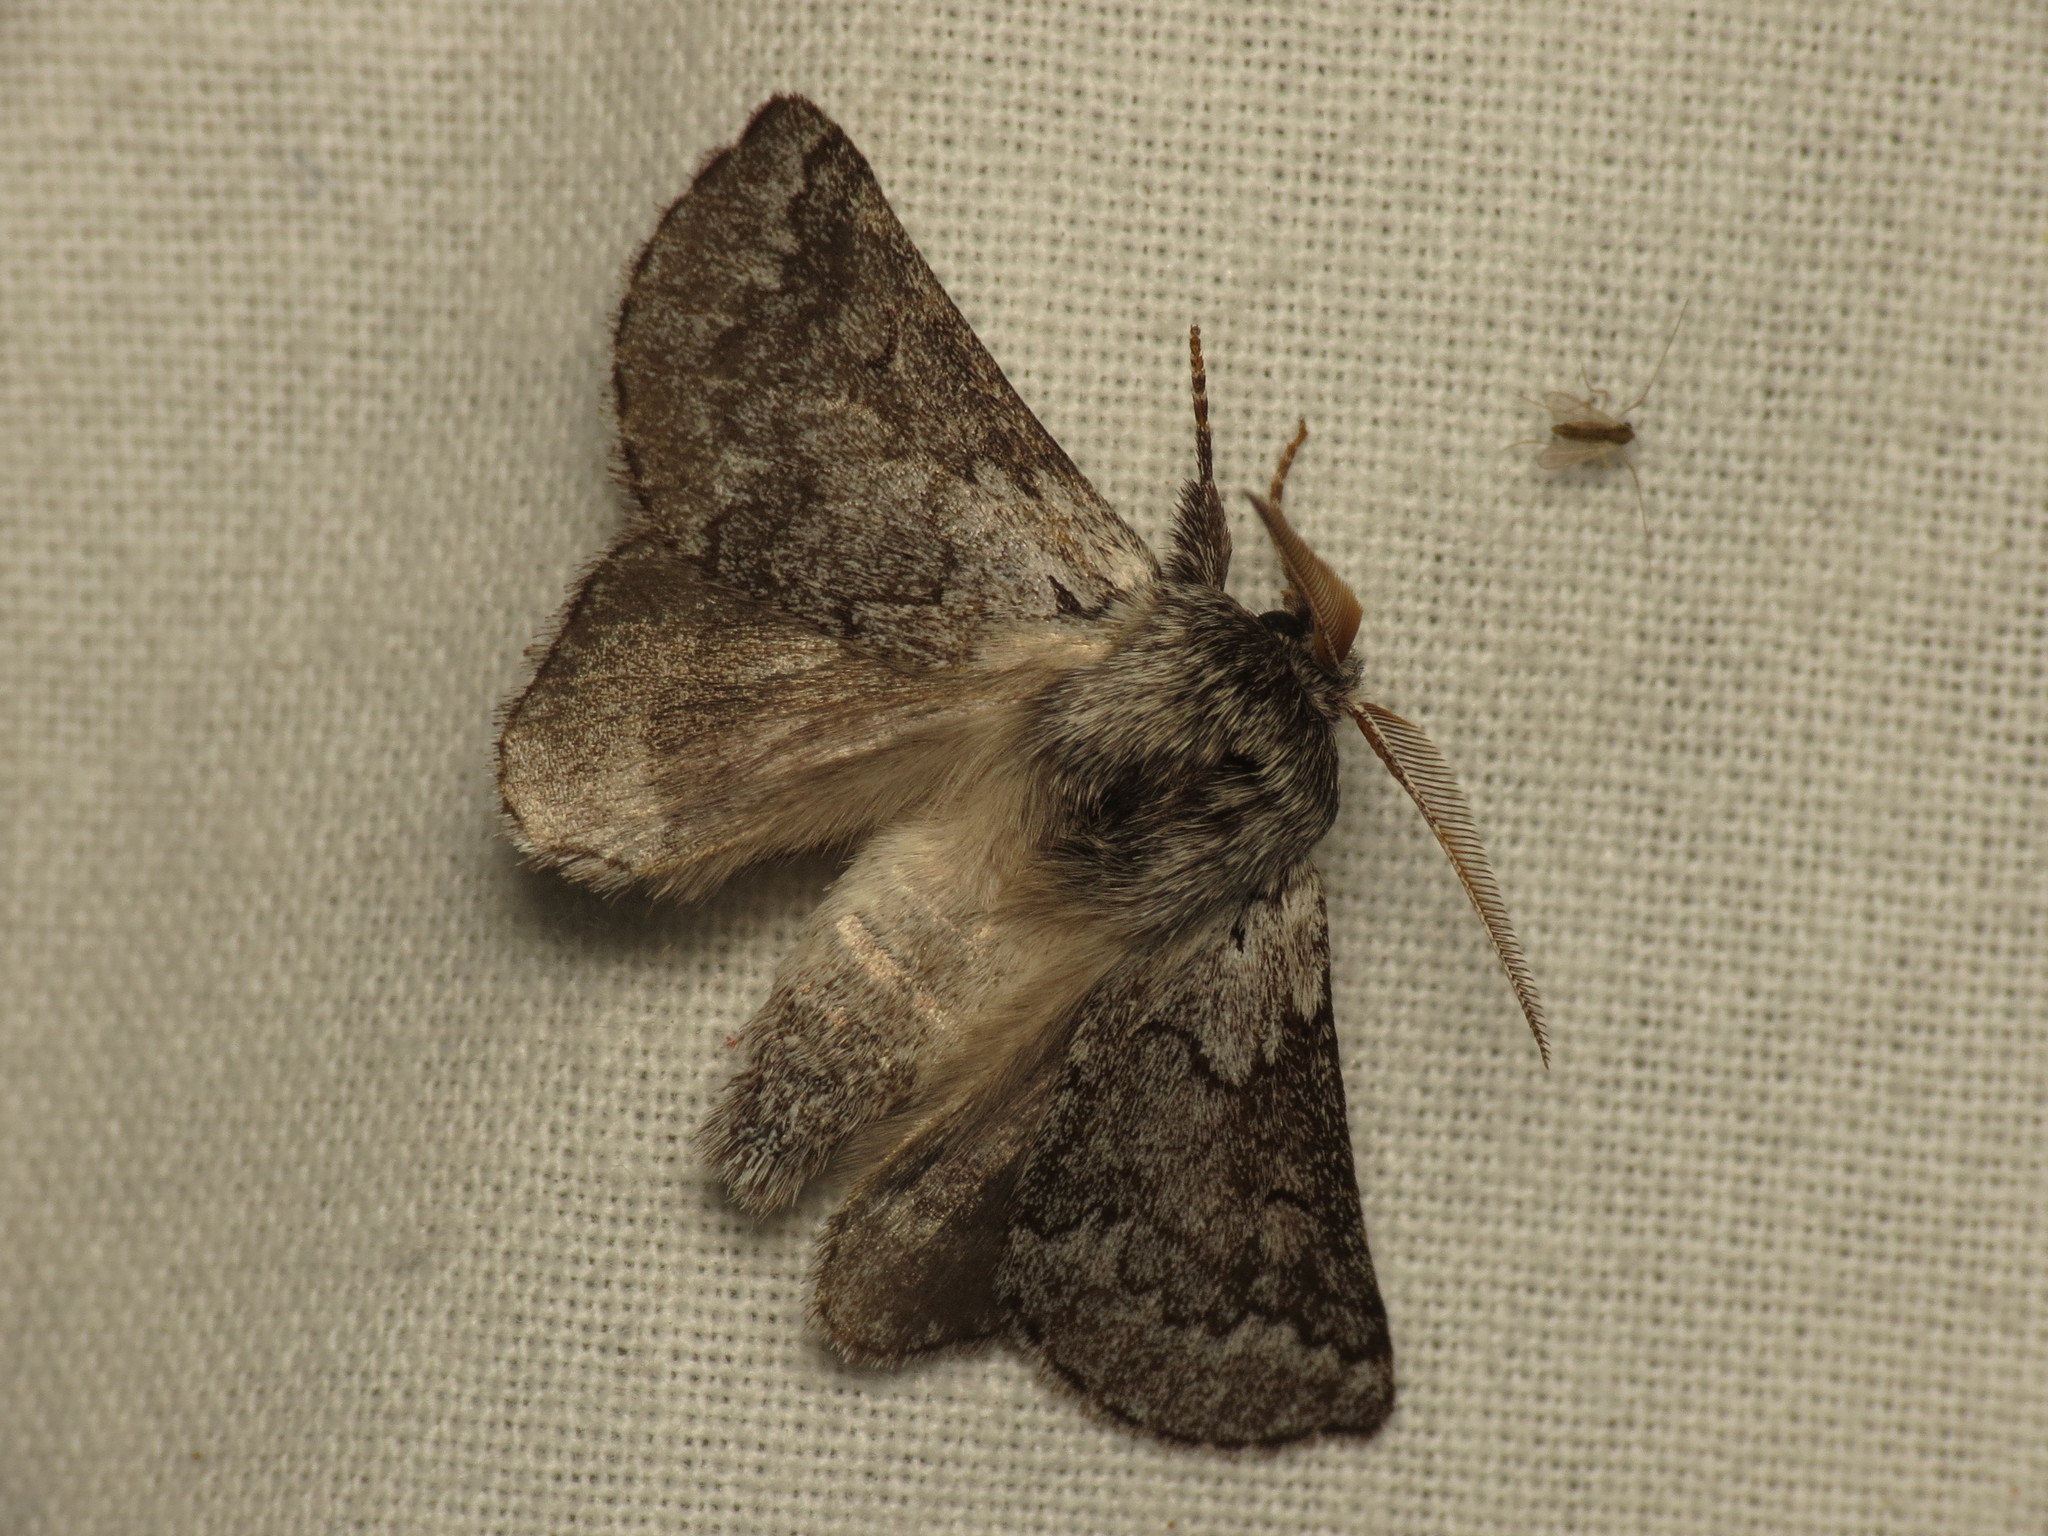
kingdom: Animalia
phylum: Arthropoda
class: Insecta
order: Lepidoptera
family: Anthelidae
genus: Munychryia
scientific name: Munychryia senicula
